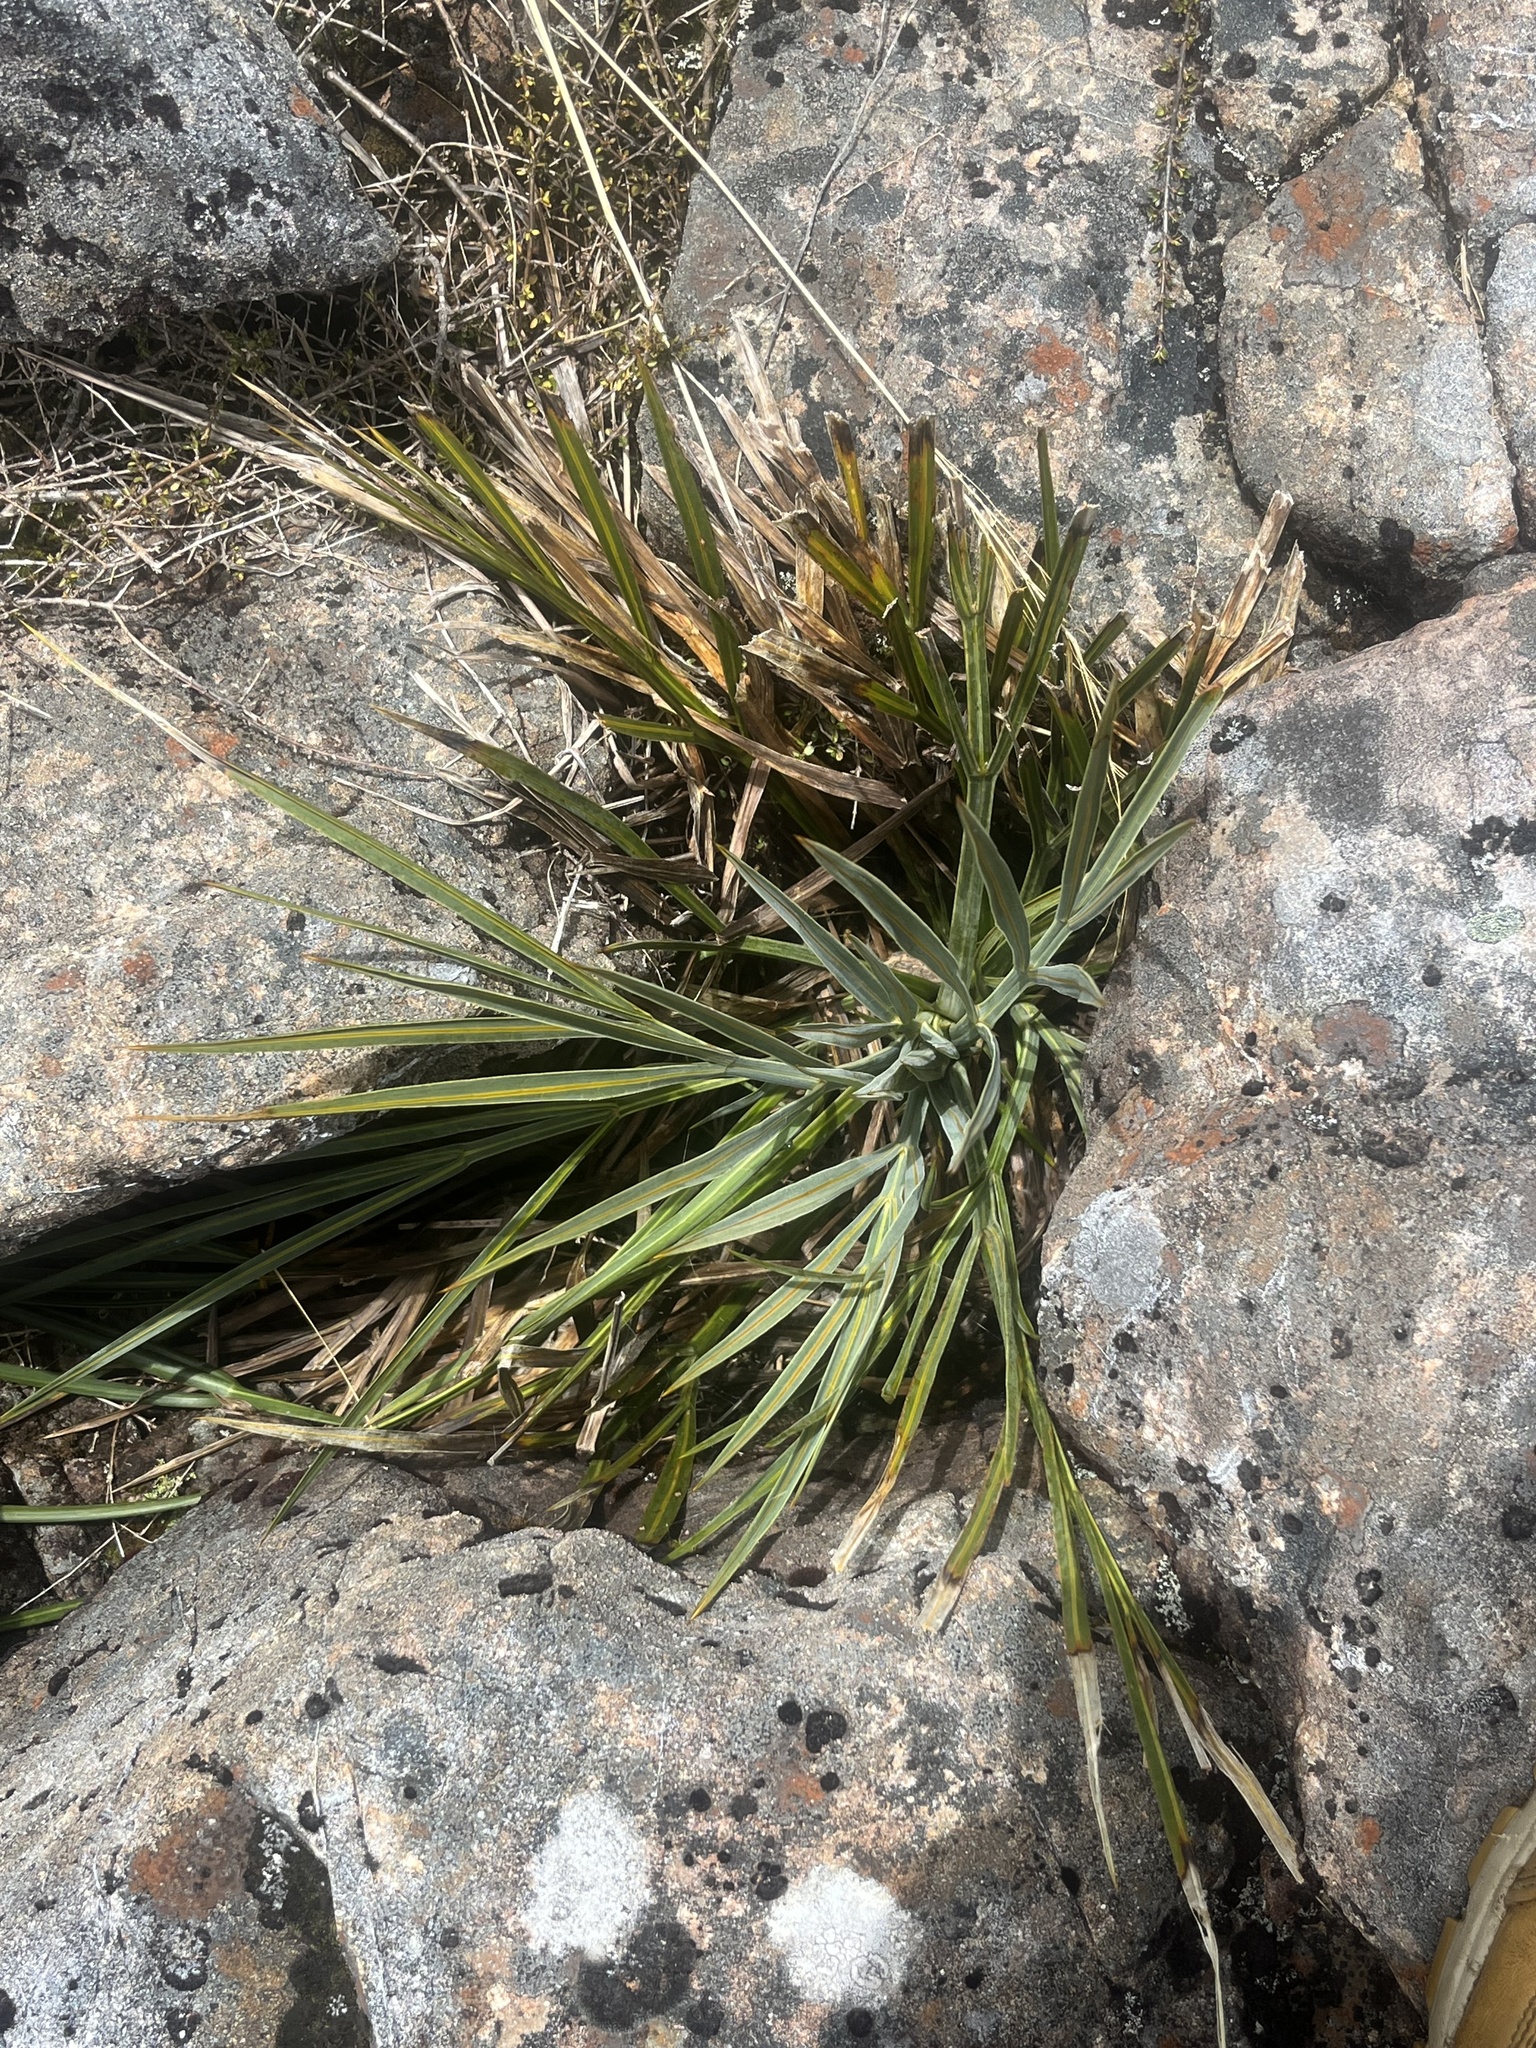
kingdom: Plantae
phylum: Tracheophyta
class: Magnoliopsida
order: Apiales
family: Apiaceae
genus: Aciphylla
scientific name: Aciphylla colensoi
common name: Colenso's spaniard
